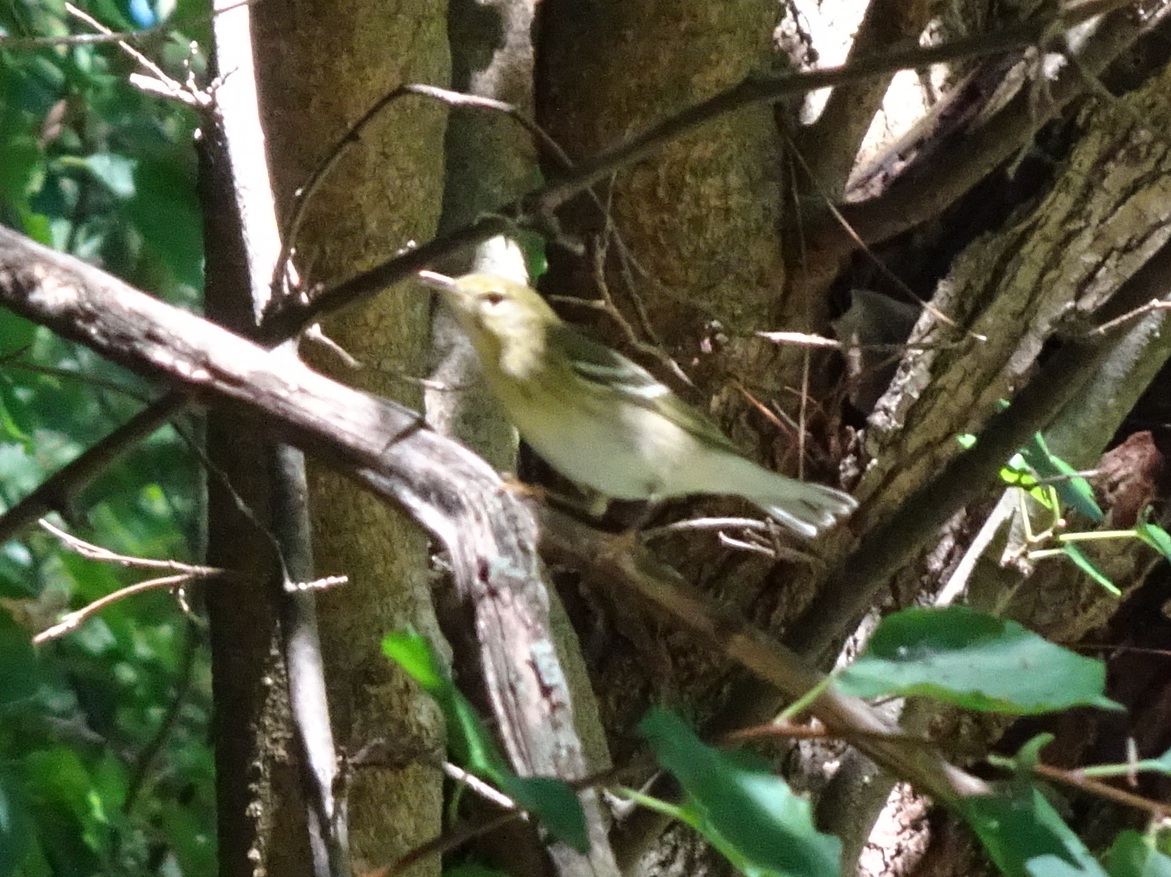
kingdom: Animalia
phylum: Chordata
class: Aves
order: Passeriformes
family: Parulidae
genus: Setophaga
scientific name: Setophaga striata
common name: Blackpoll warbler
